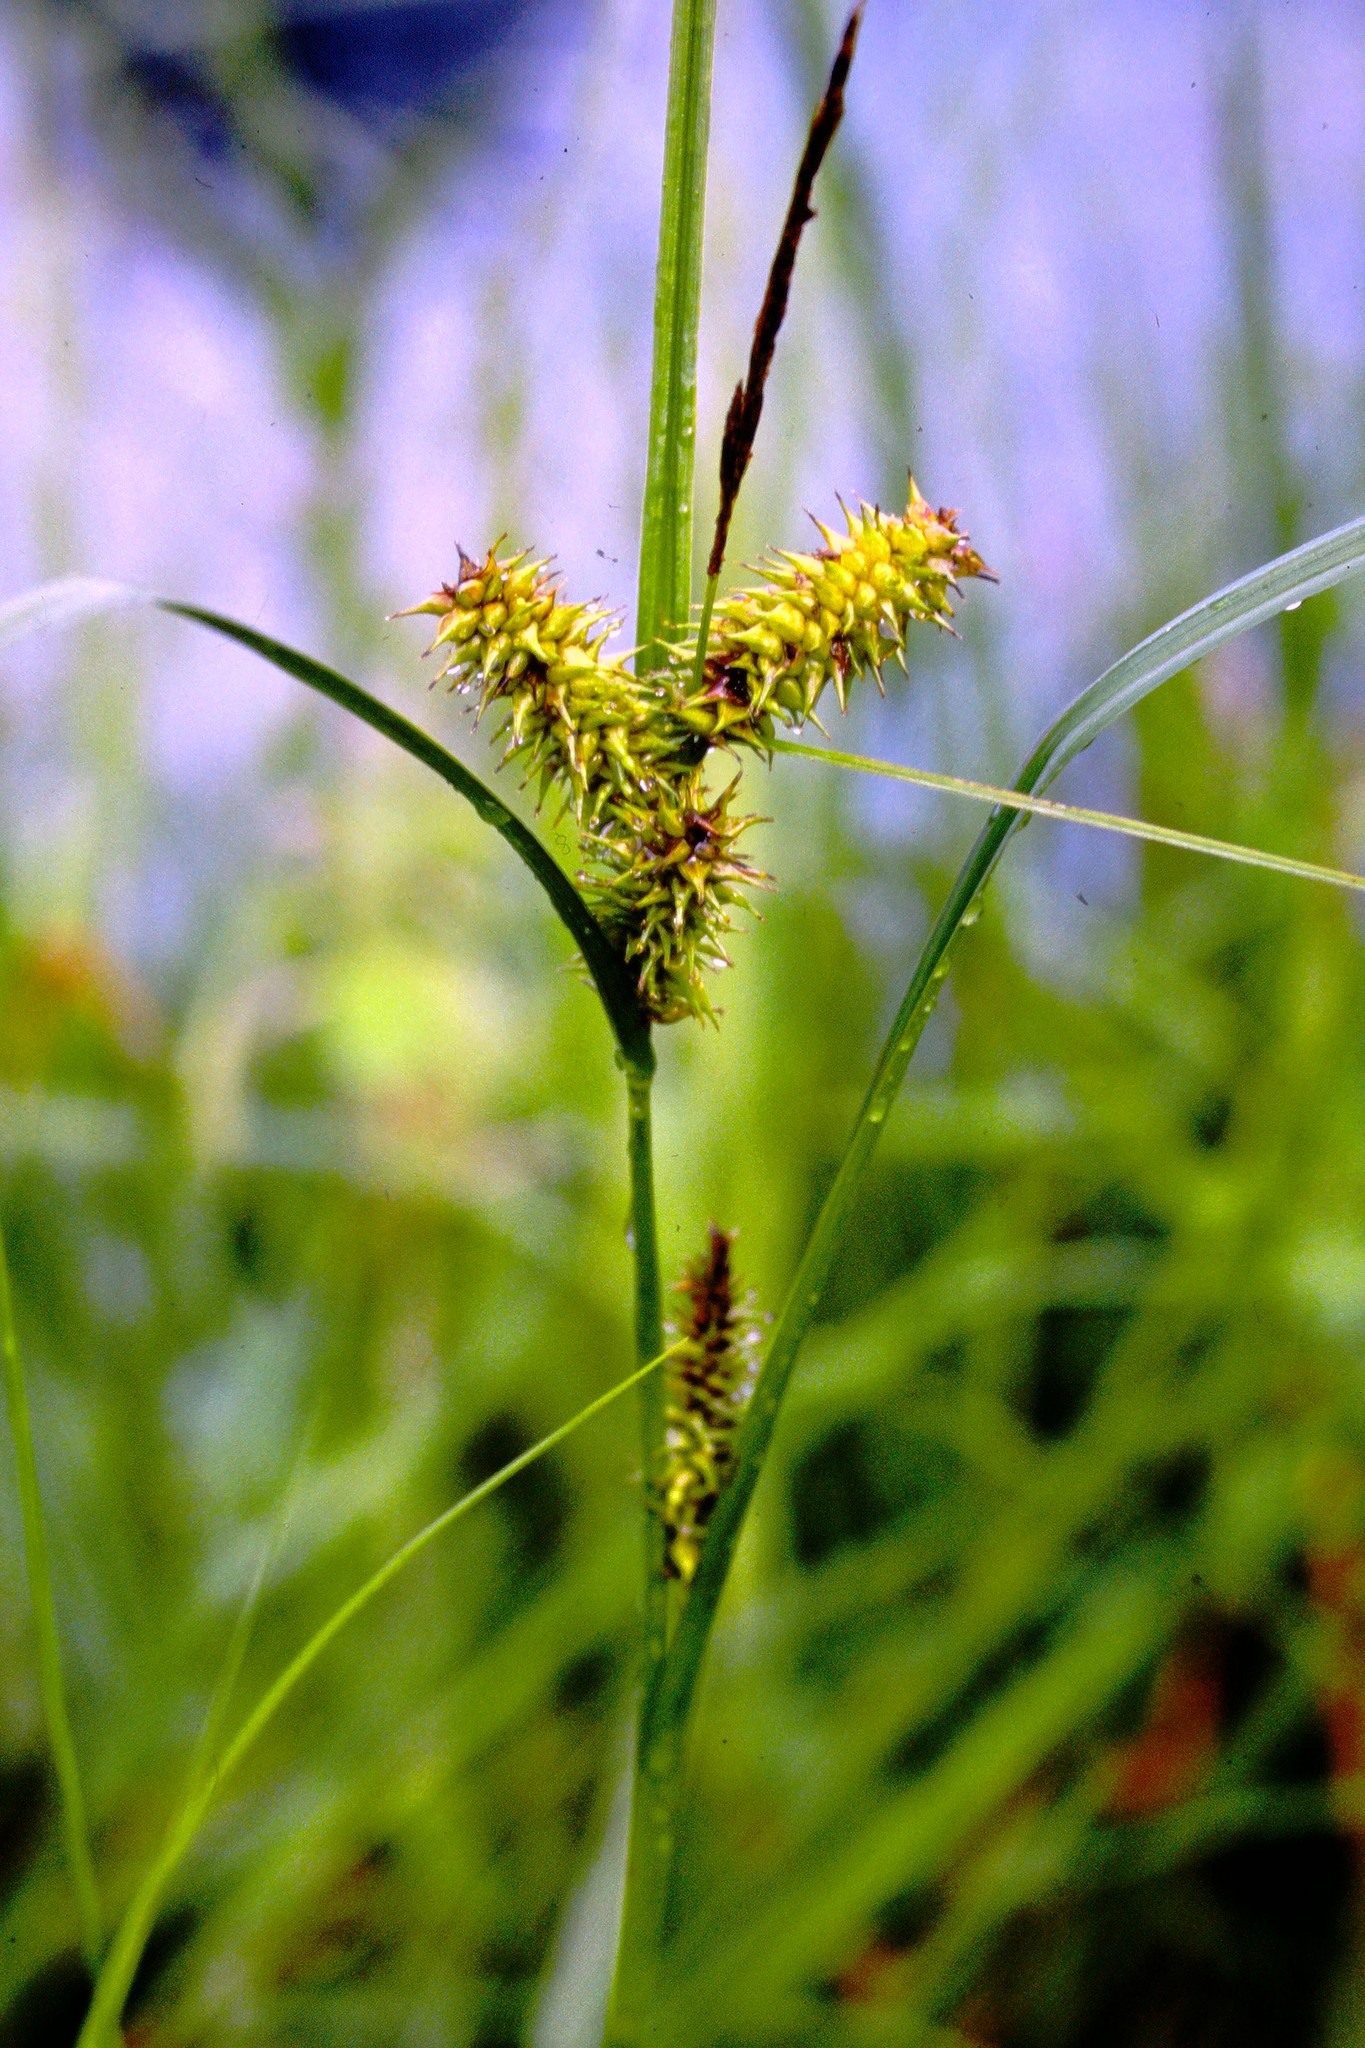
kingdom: Plantae
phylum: Tracheophyta
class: Liliopsida
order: Poales
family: Cyperaceae
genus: Carex
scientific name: Carex retrorsa
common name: Knot-sheath sedge
